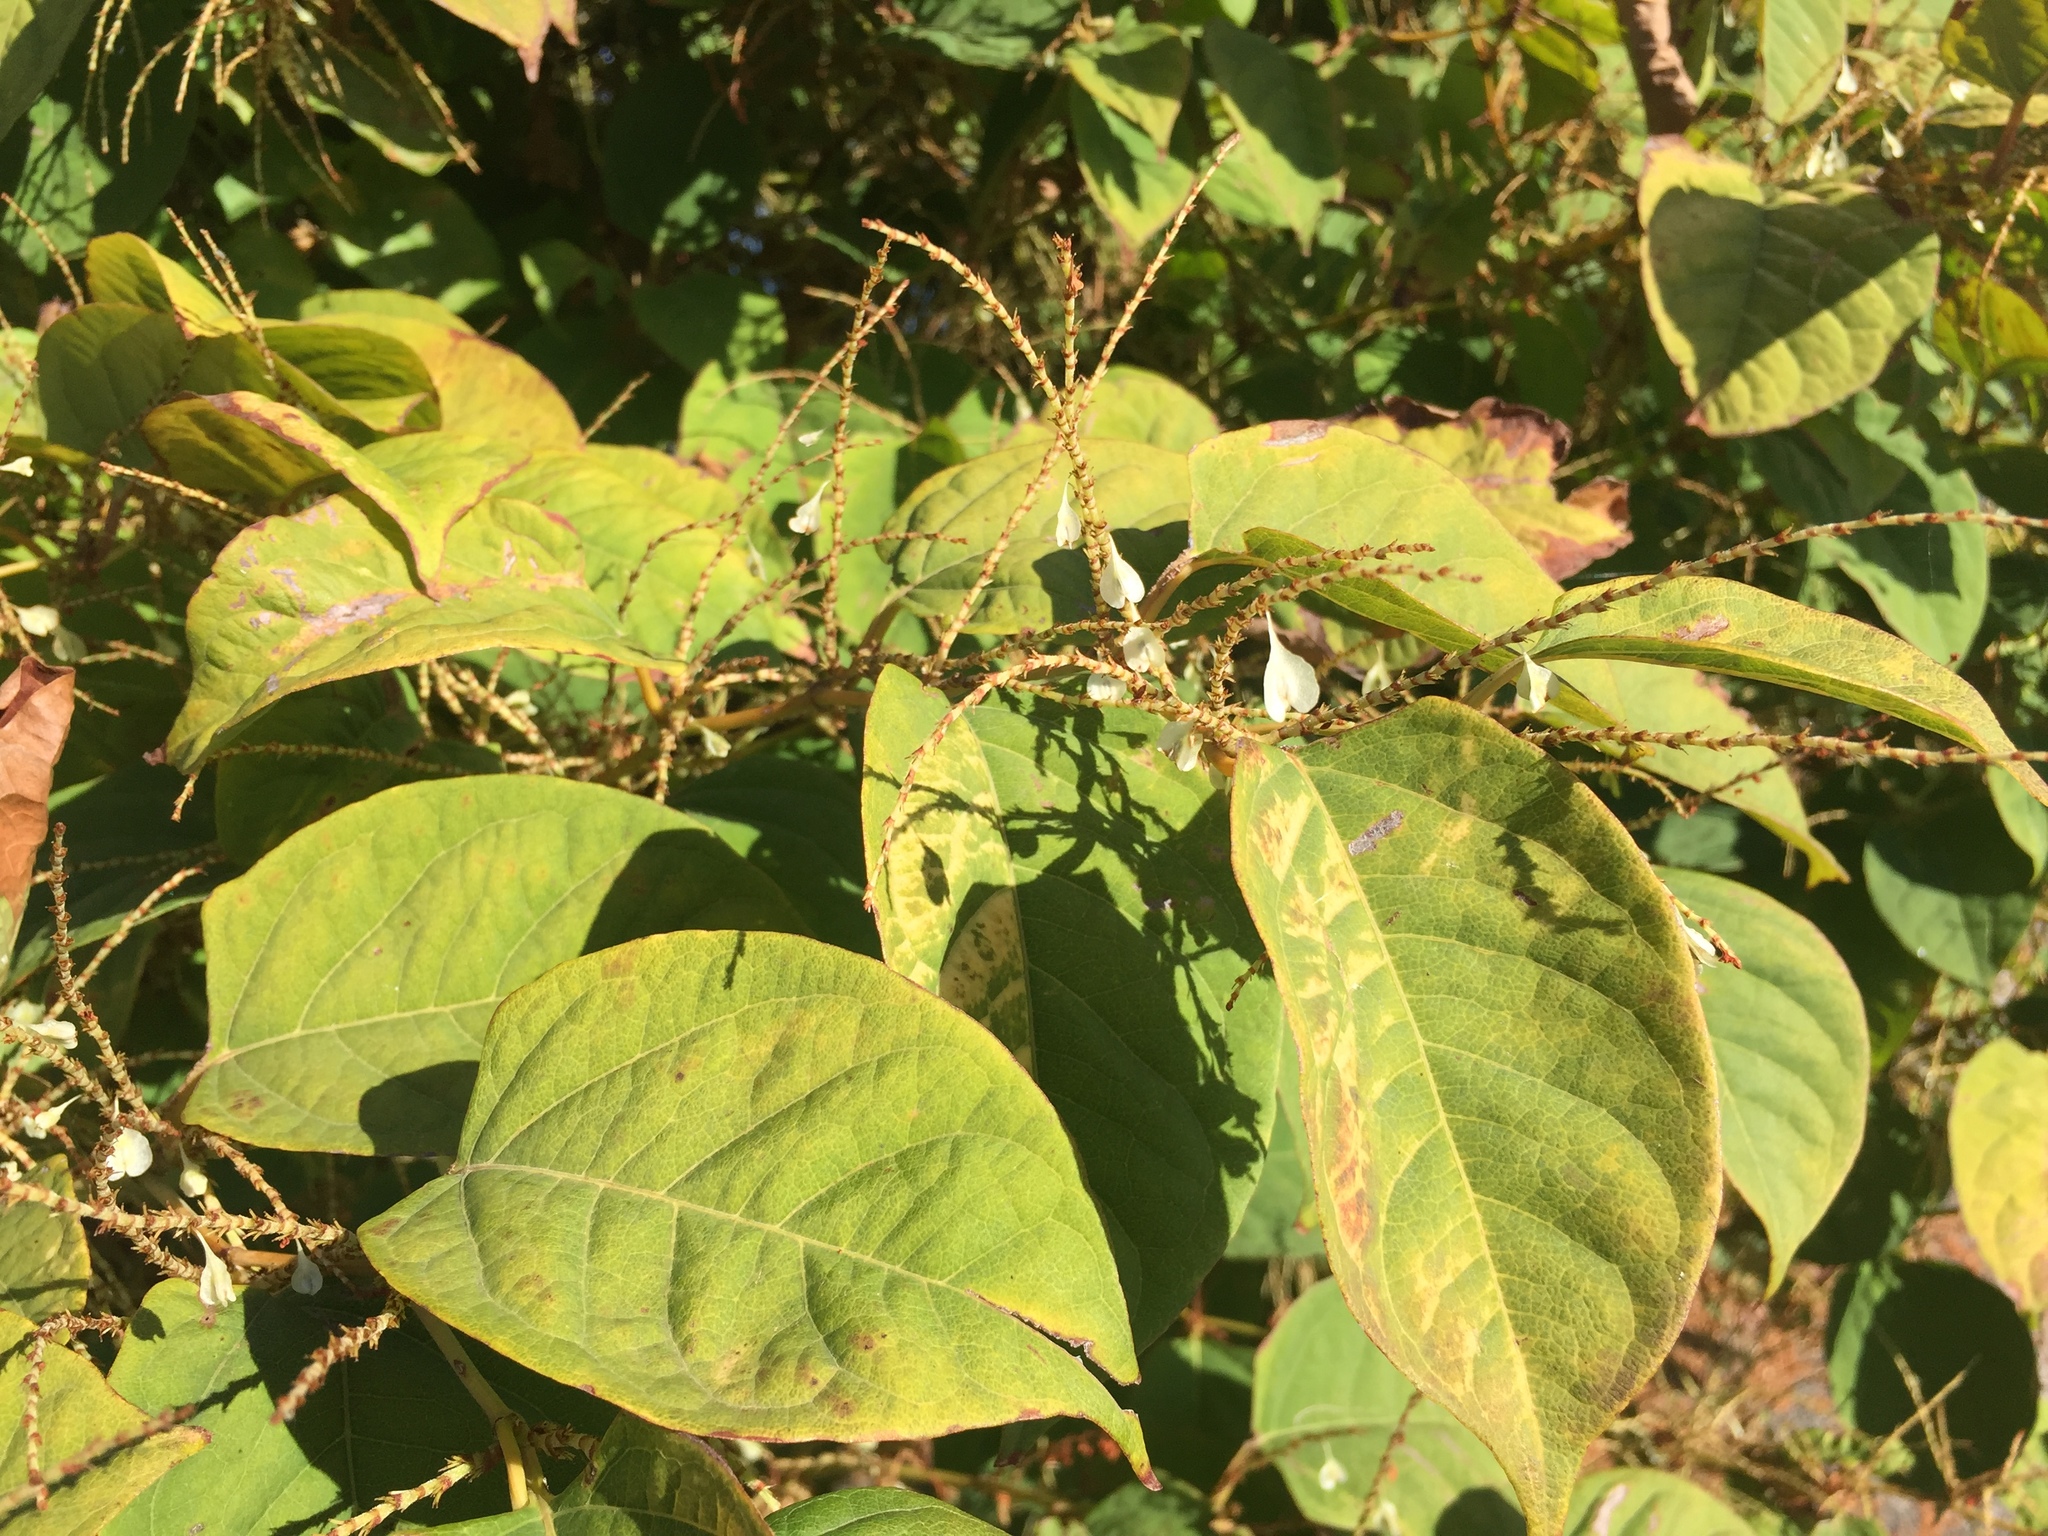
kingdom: Plantae
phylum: Tracheophyta
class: Magnoliopsida
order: Caryophyllales
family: Polygonaceae
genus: Reynoutria
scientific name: Reynoutria japonica
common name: Japanese knotweed
